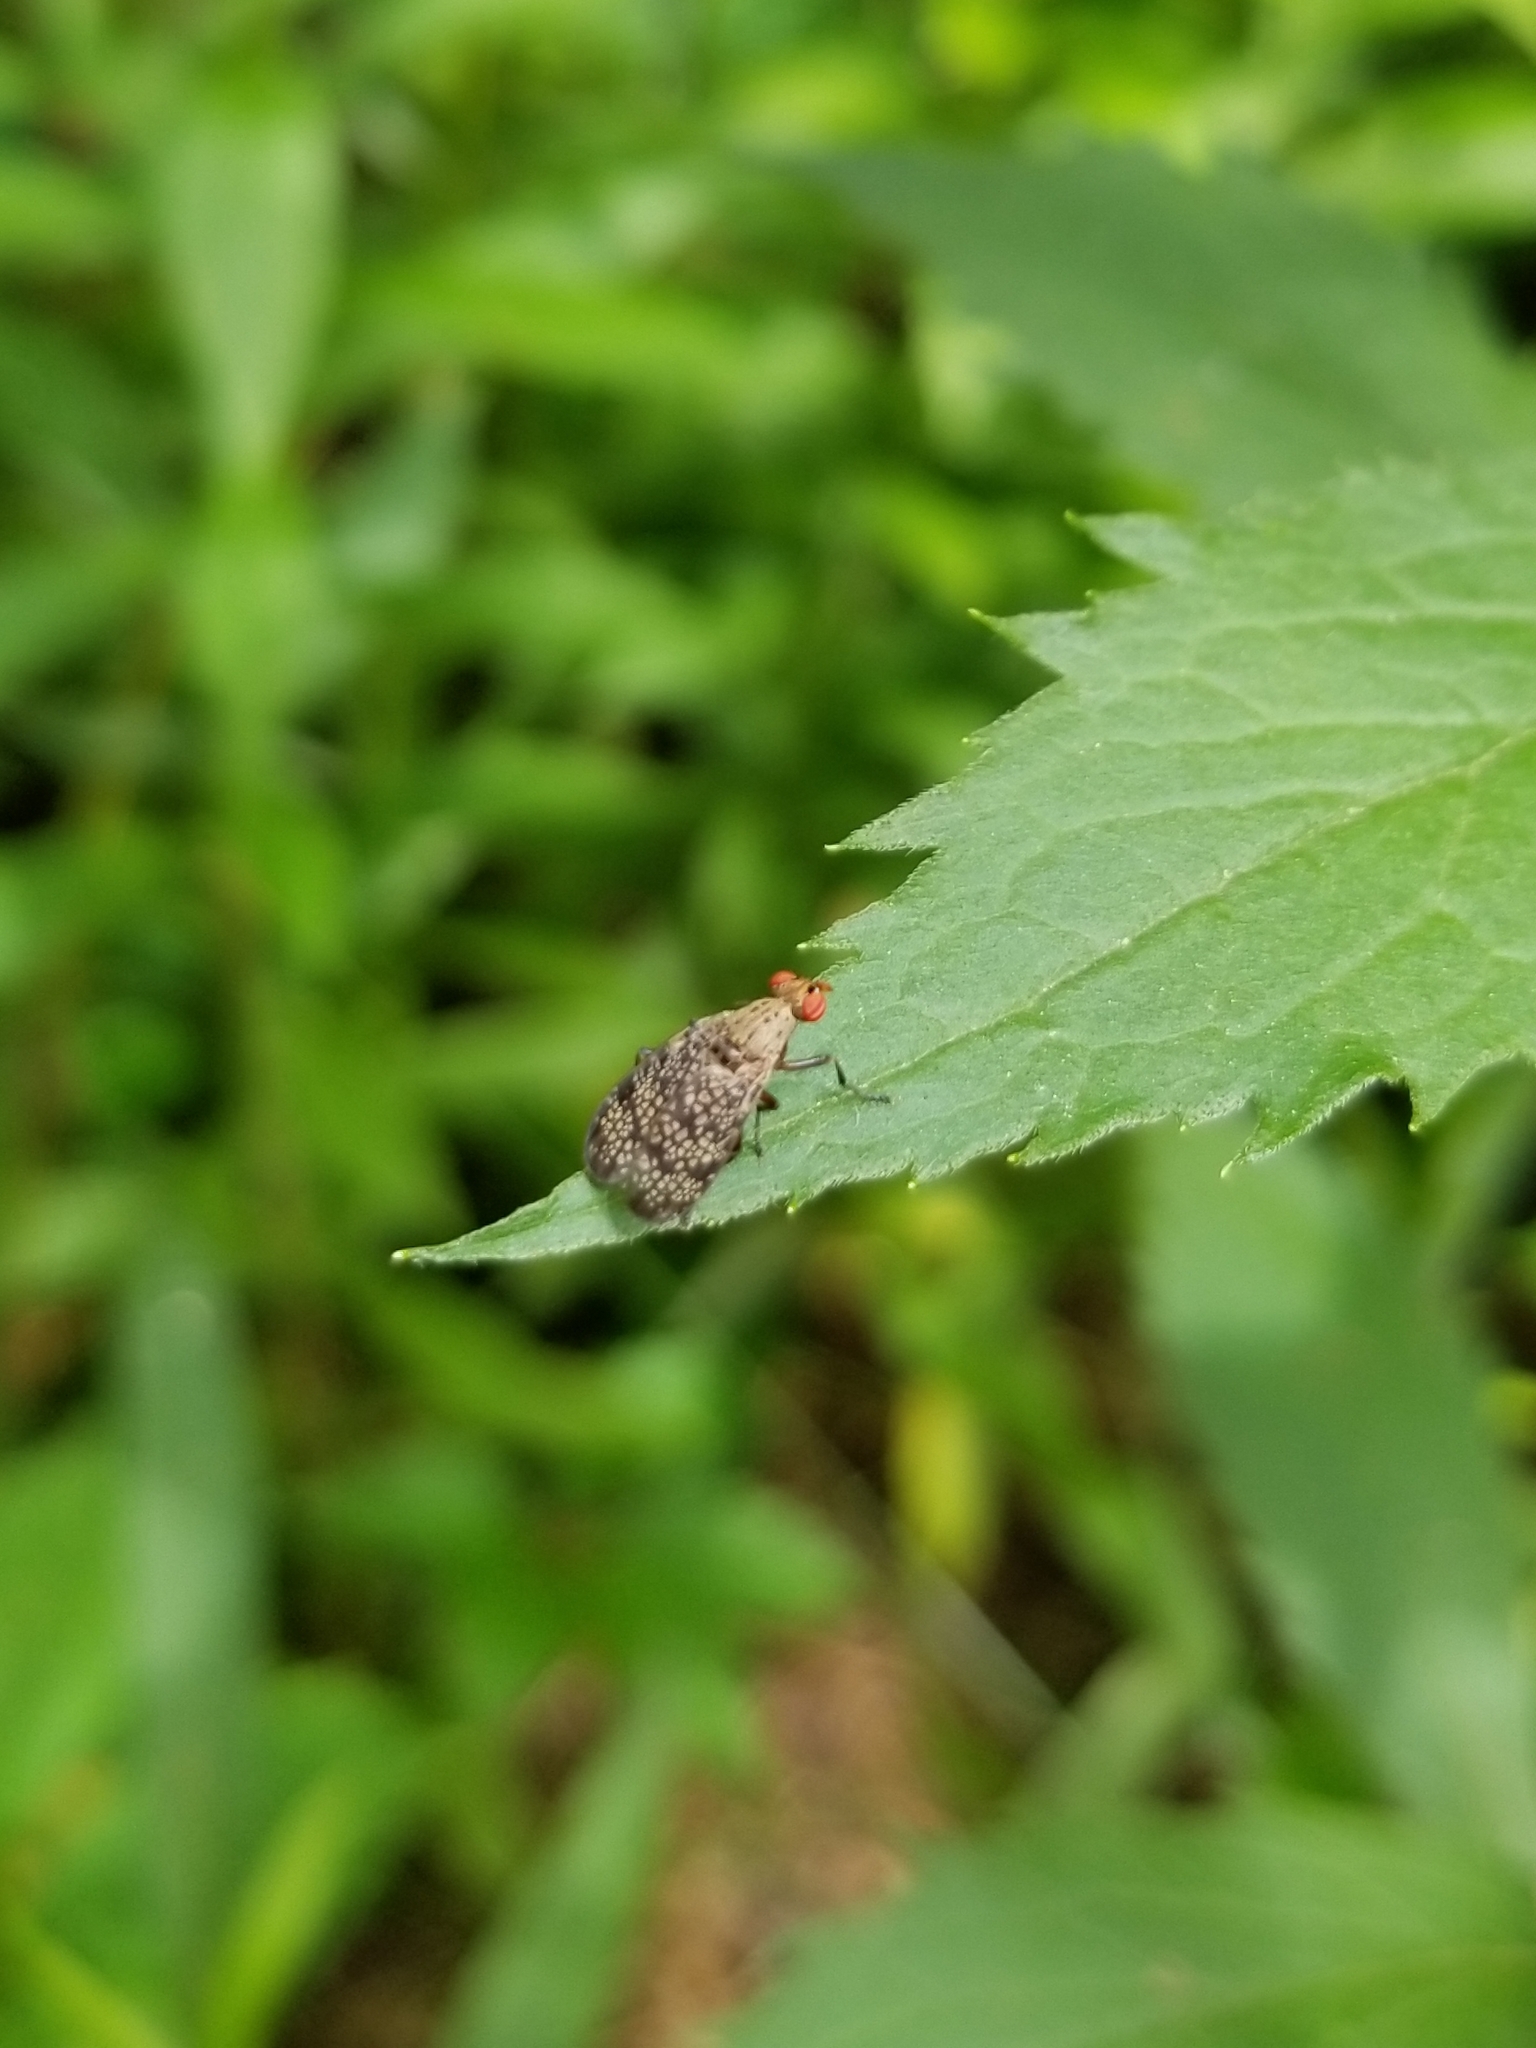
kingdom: Animalia
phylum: Arthropoda
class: Insecta
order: Diptera
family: Sciomyzidae
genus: Euthycera
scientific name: Euthycera flavescens
